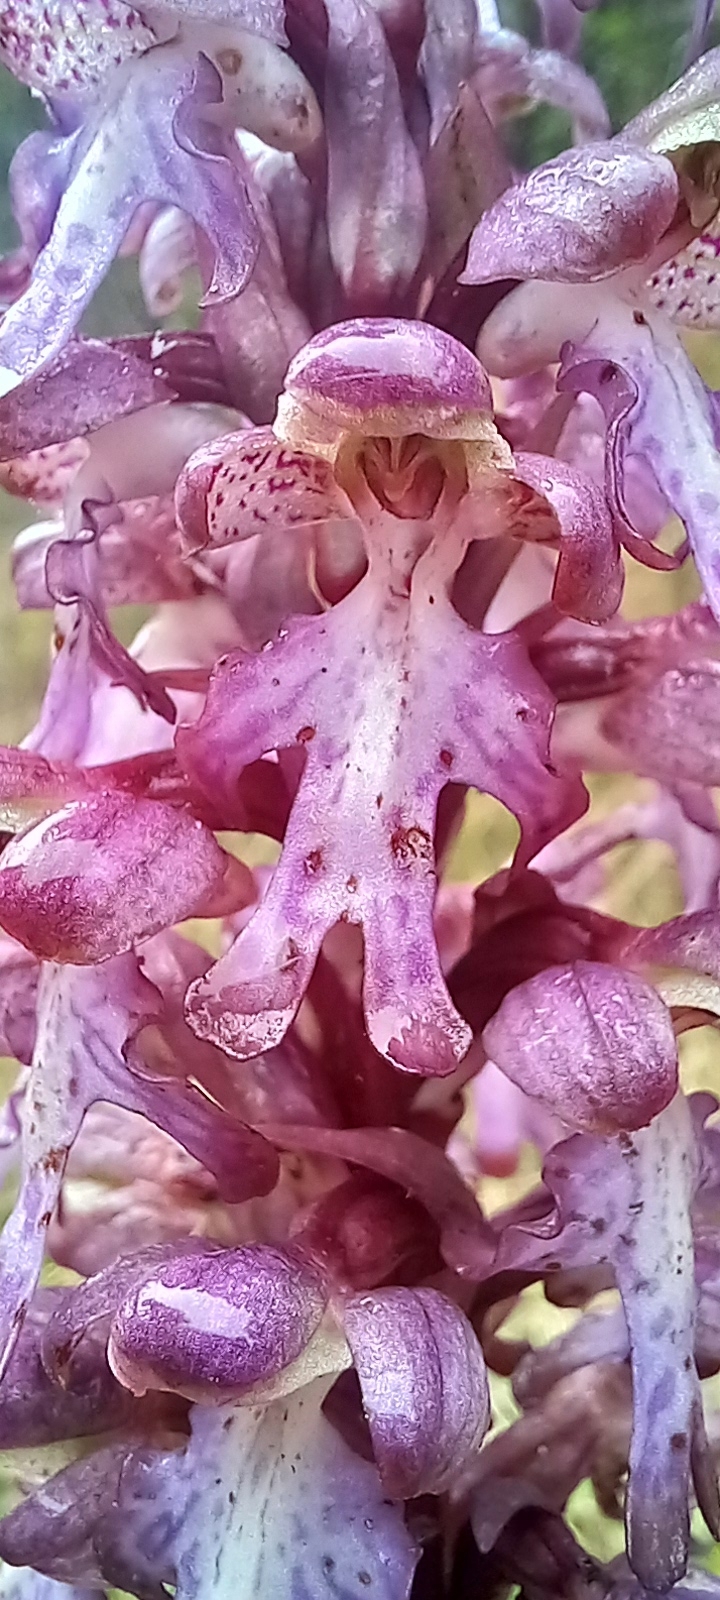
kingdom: Plantae
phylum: Tracheophyta
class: Liliopsida
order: Asparagales
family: Orchidaceae
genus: Himantoglossum
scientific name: Himantoglossum robertianum
